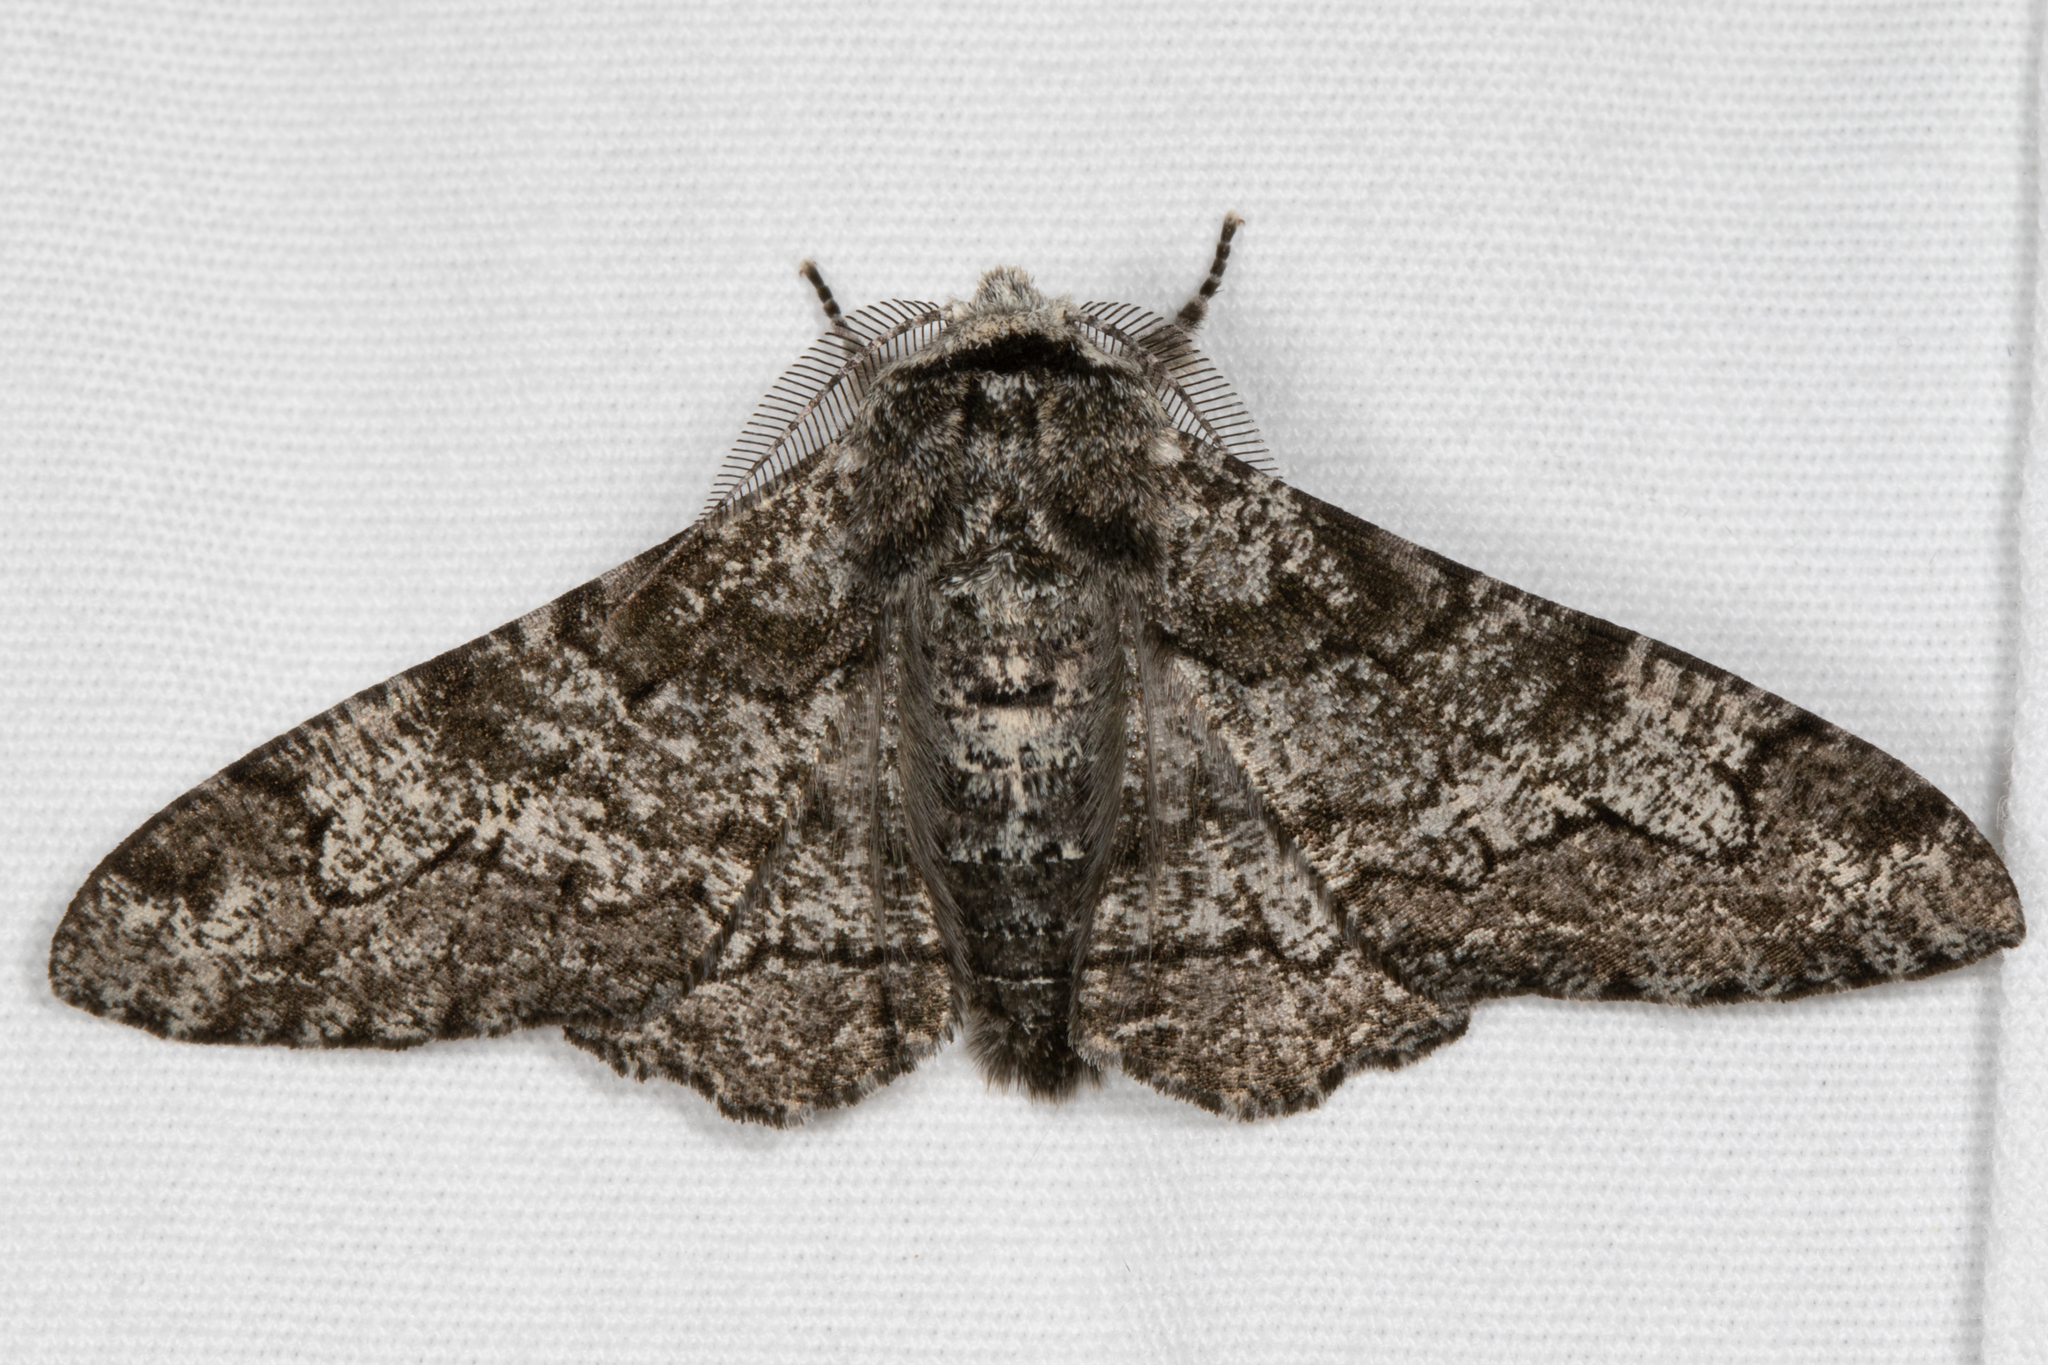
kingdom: Animalia
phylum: Arthropoda
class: Insecta
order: Lepidoptera
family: Geometridae
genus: Biston
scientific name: Biston betularia
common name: Peppered moth
